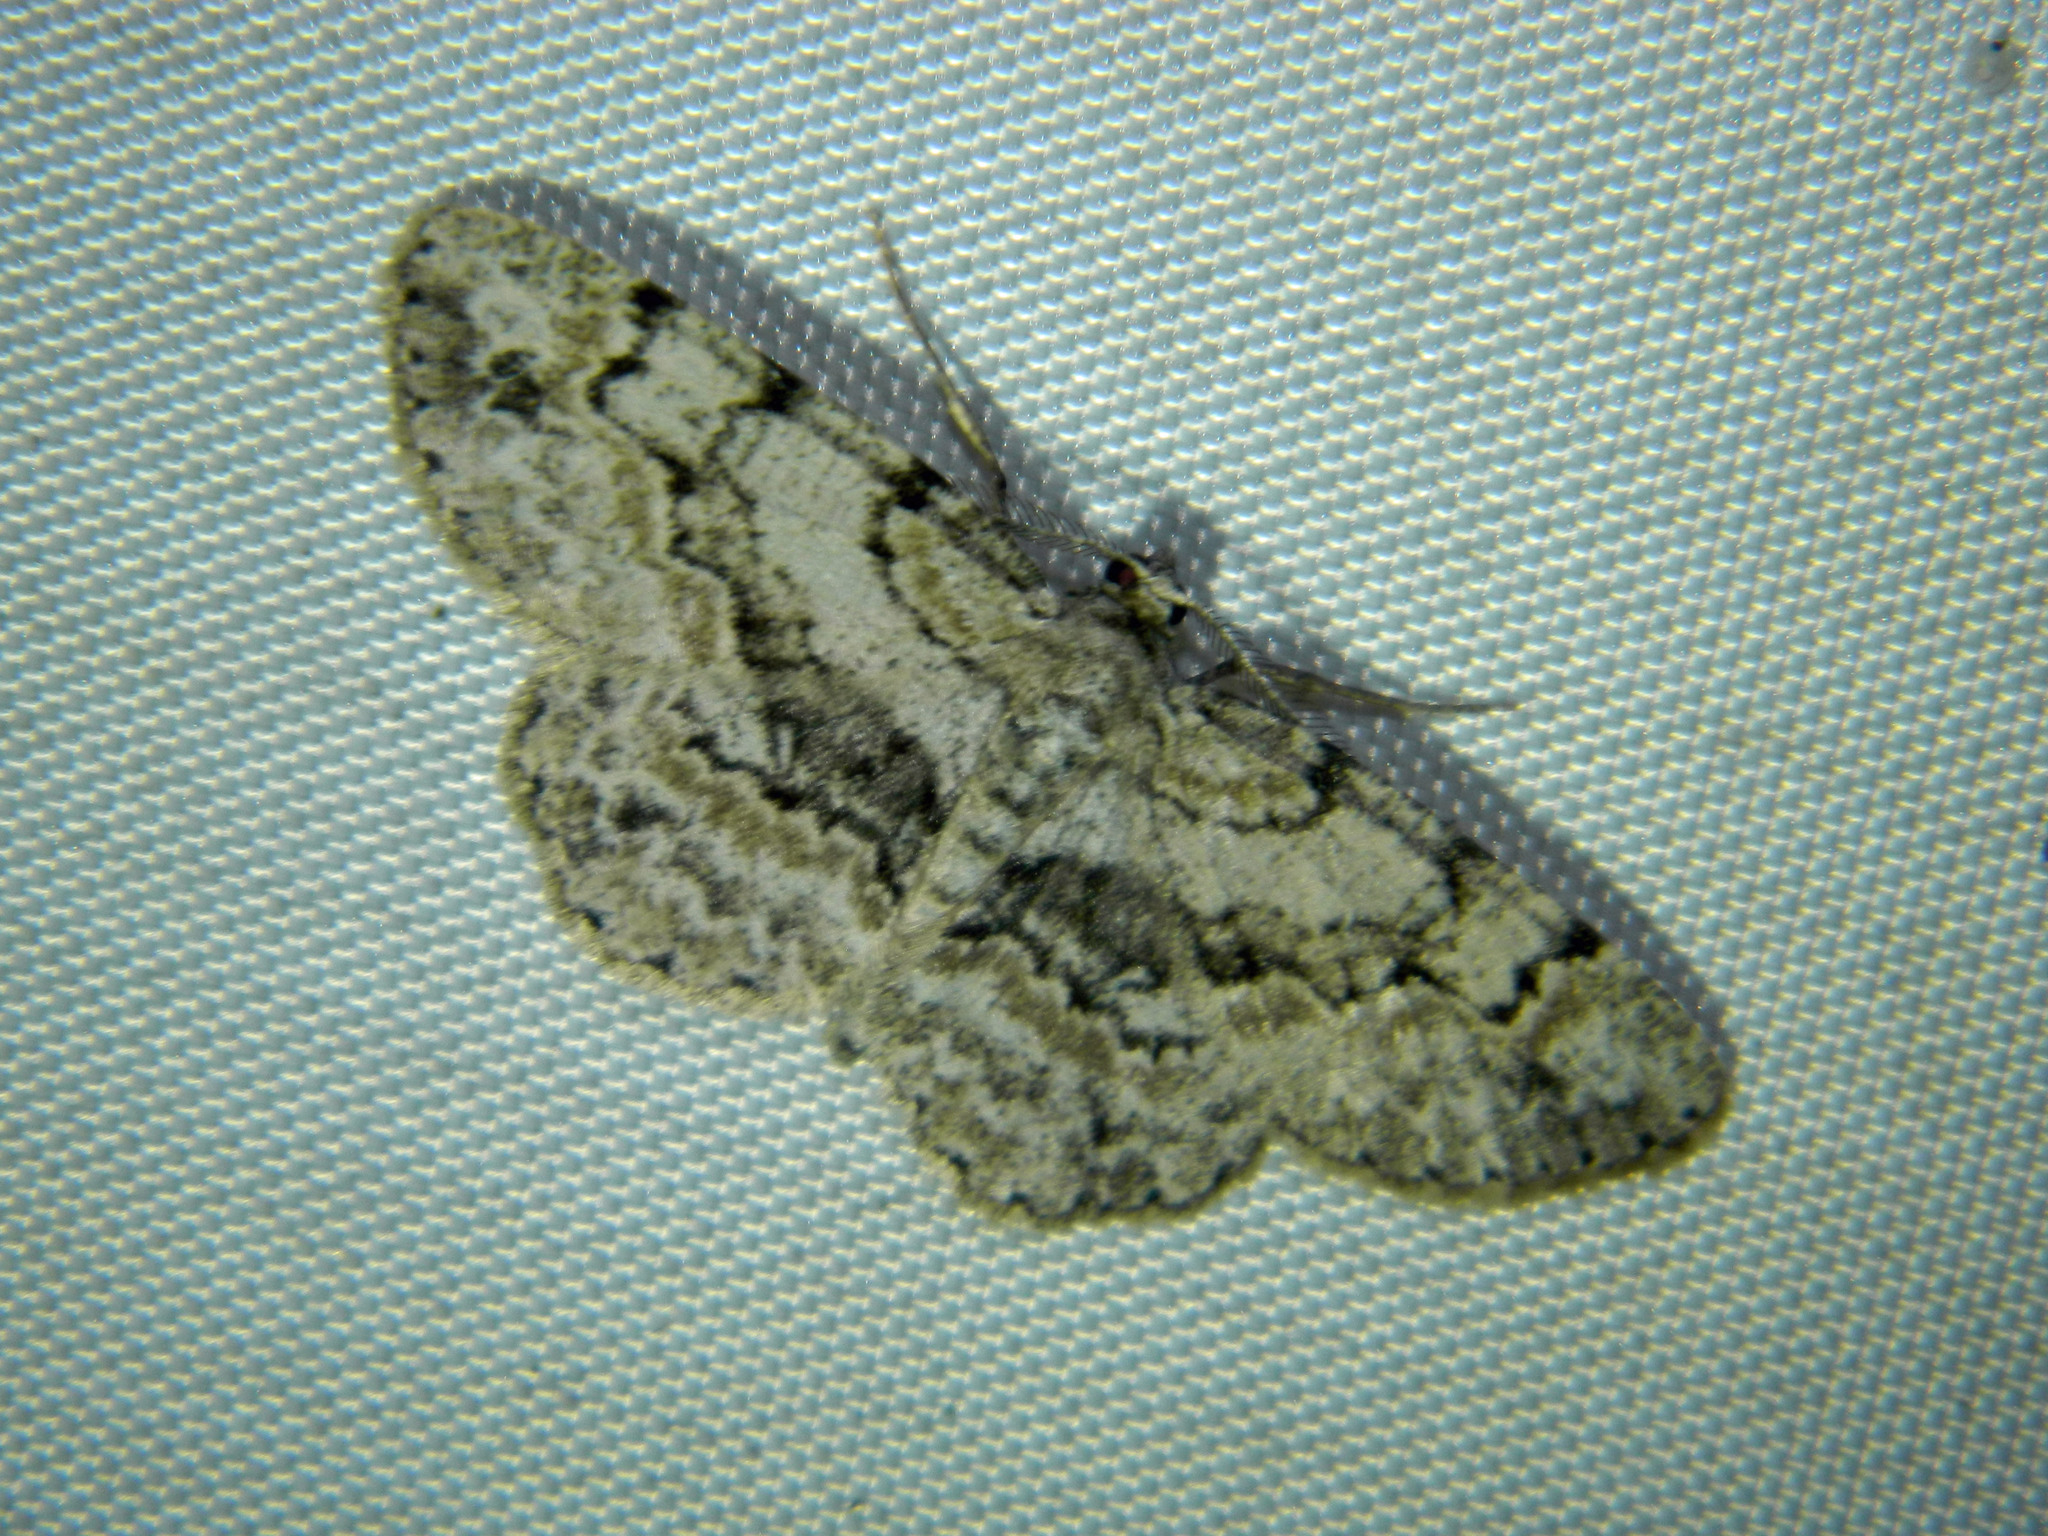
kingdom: Animalia
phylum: Arthropoda
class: Insecta
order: Lepidoptera
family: Geometridae
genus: Iridopsis
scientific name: Iridopsis ephyraria
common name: Pale-winged gray
